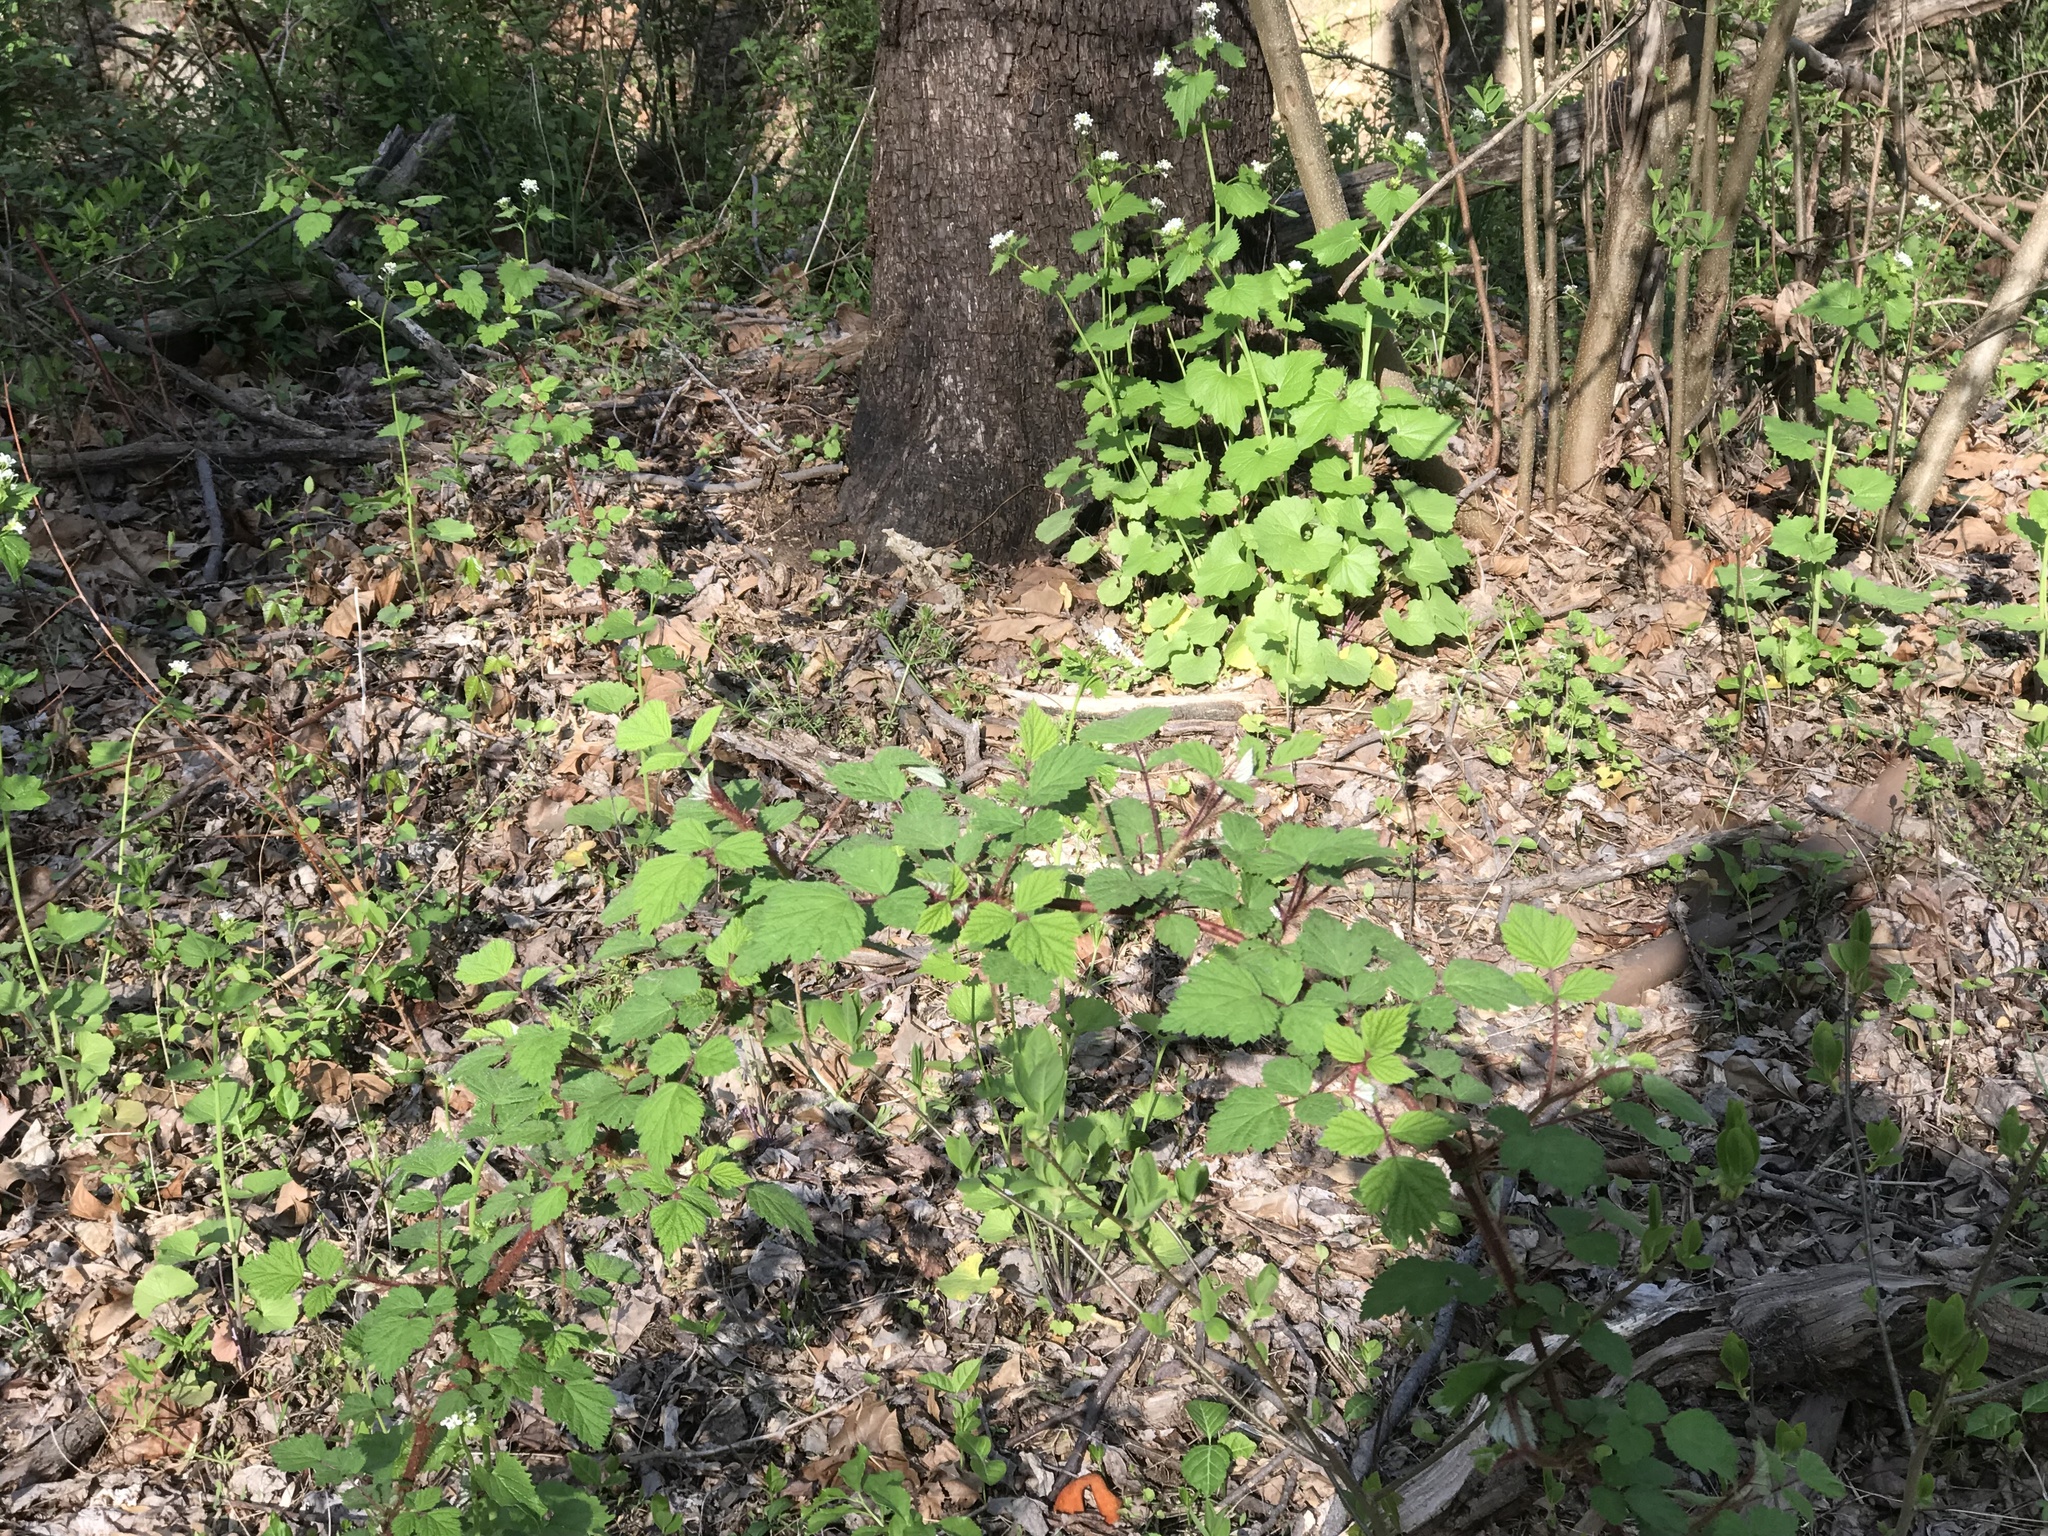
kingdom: Plantae
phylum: Tracheophyta
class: Magnoliopsida
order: Rosales
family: Rosaceae
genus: Rubus
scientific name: Rubus phoenicolasius
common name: Japanese wineberry
